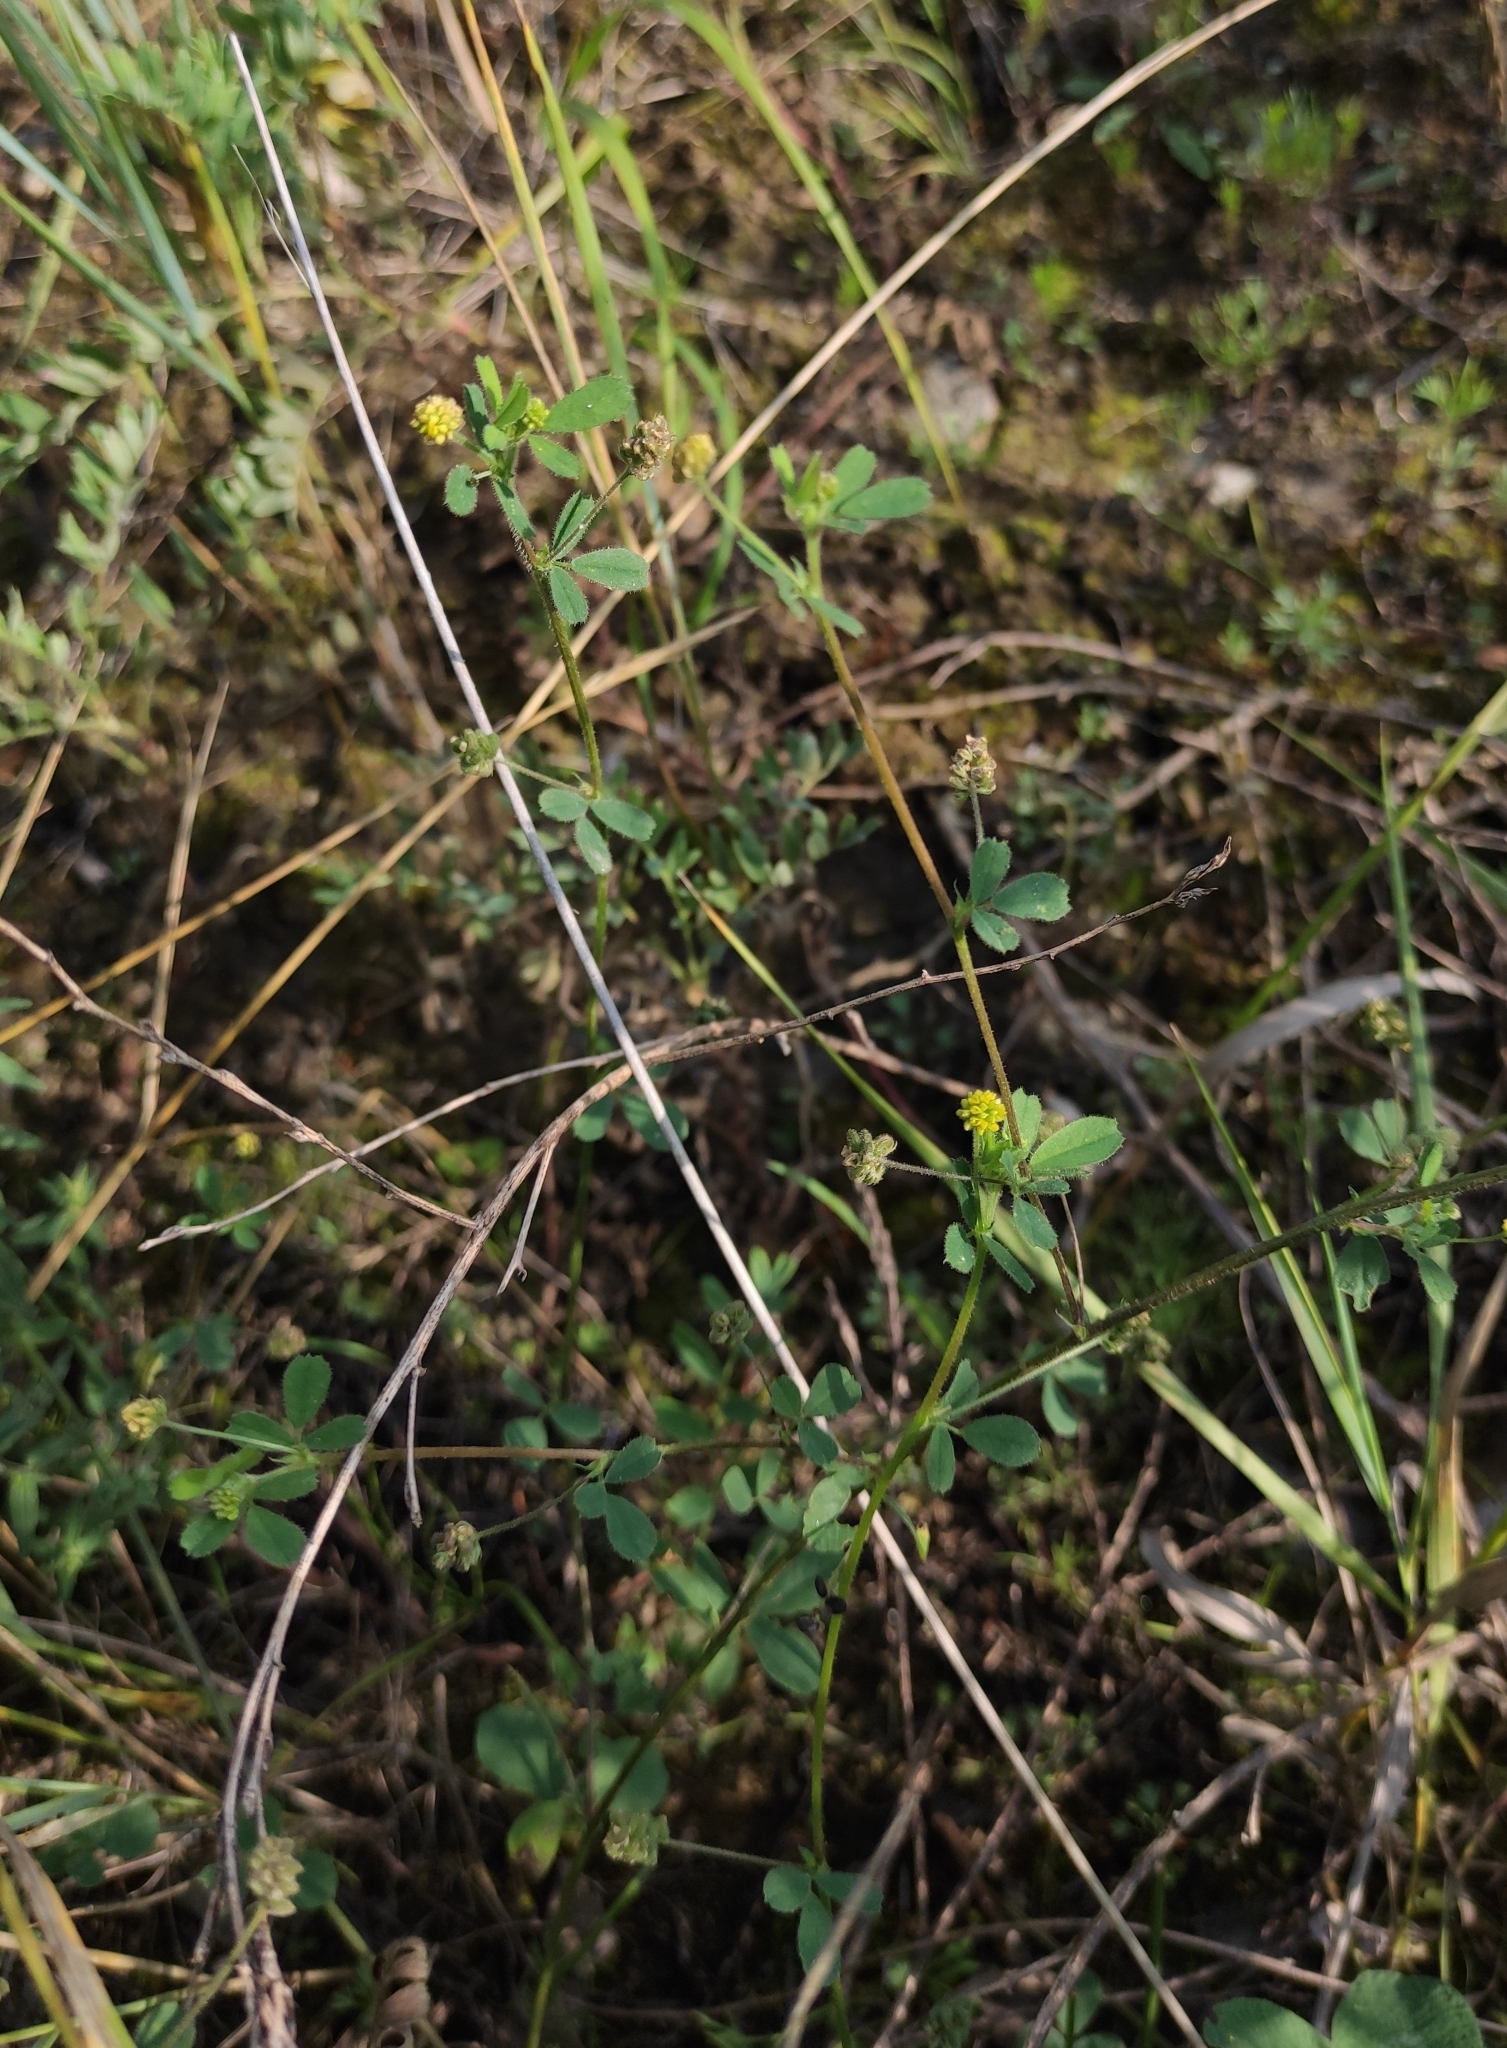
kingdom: Plantae
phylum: Tracheophyta
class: Magnoliopsida
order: Fabales
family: Fabaceae
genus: Medicago
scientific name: Medicago lupulina
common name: Black medick
